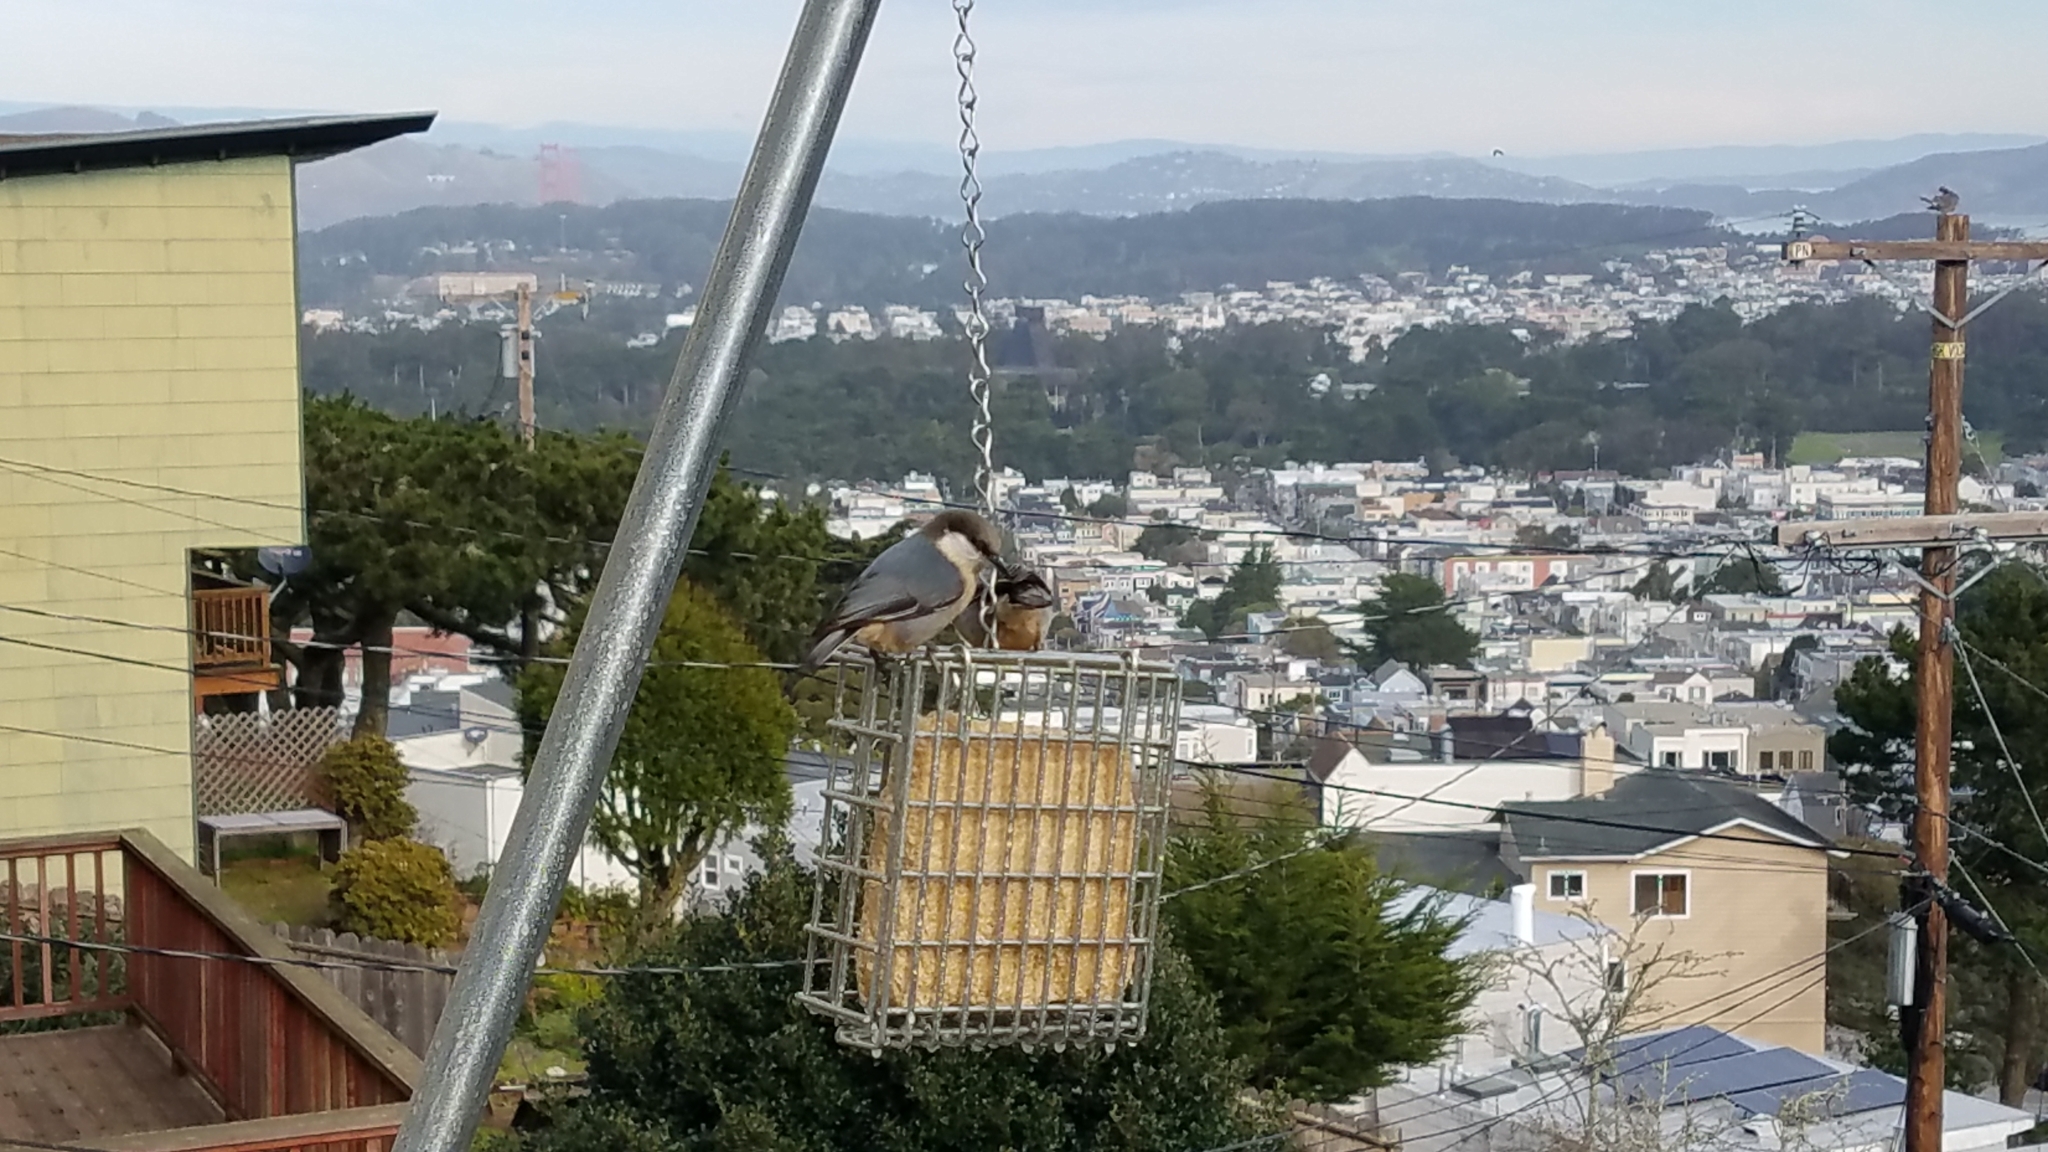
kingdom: Animalia
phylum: Chordata
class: Aves
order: Passeriformes
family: Sittidae
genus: Sitta
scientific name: Sitta pygmaea
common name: Pygmy nuthatch
